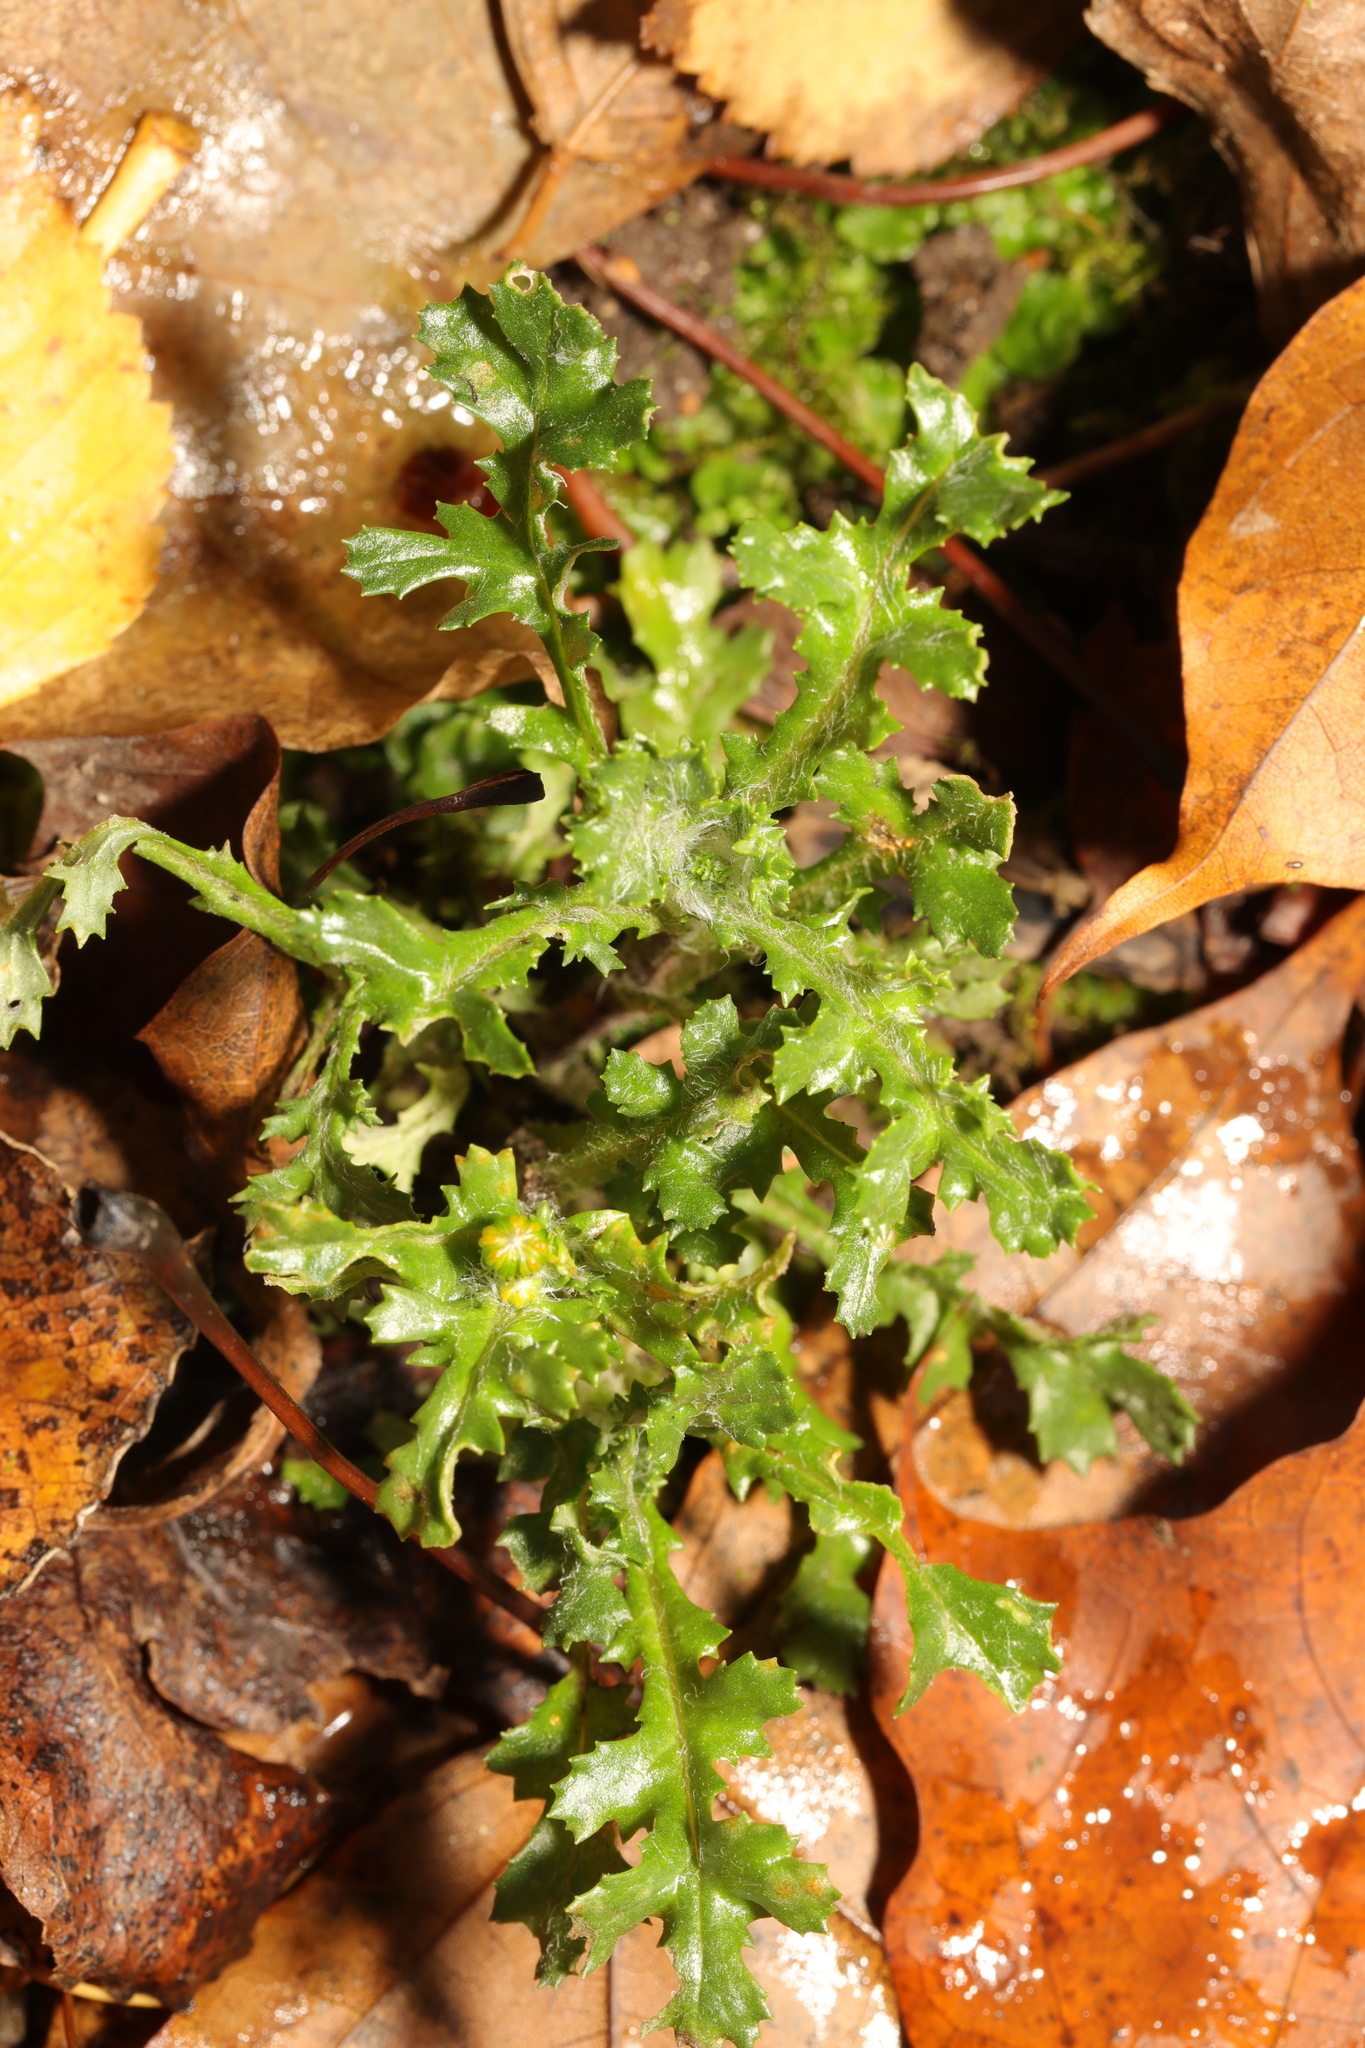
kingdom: Plantae
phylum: Tracheophyta
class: Magnoliopsida
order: Asterales
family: Asteraceae
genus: Senecio
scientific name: Senecio vulgaris
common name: Old-man-in-the-spring
